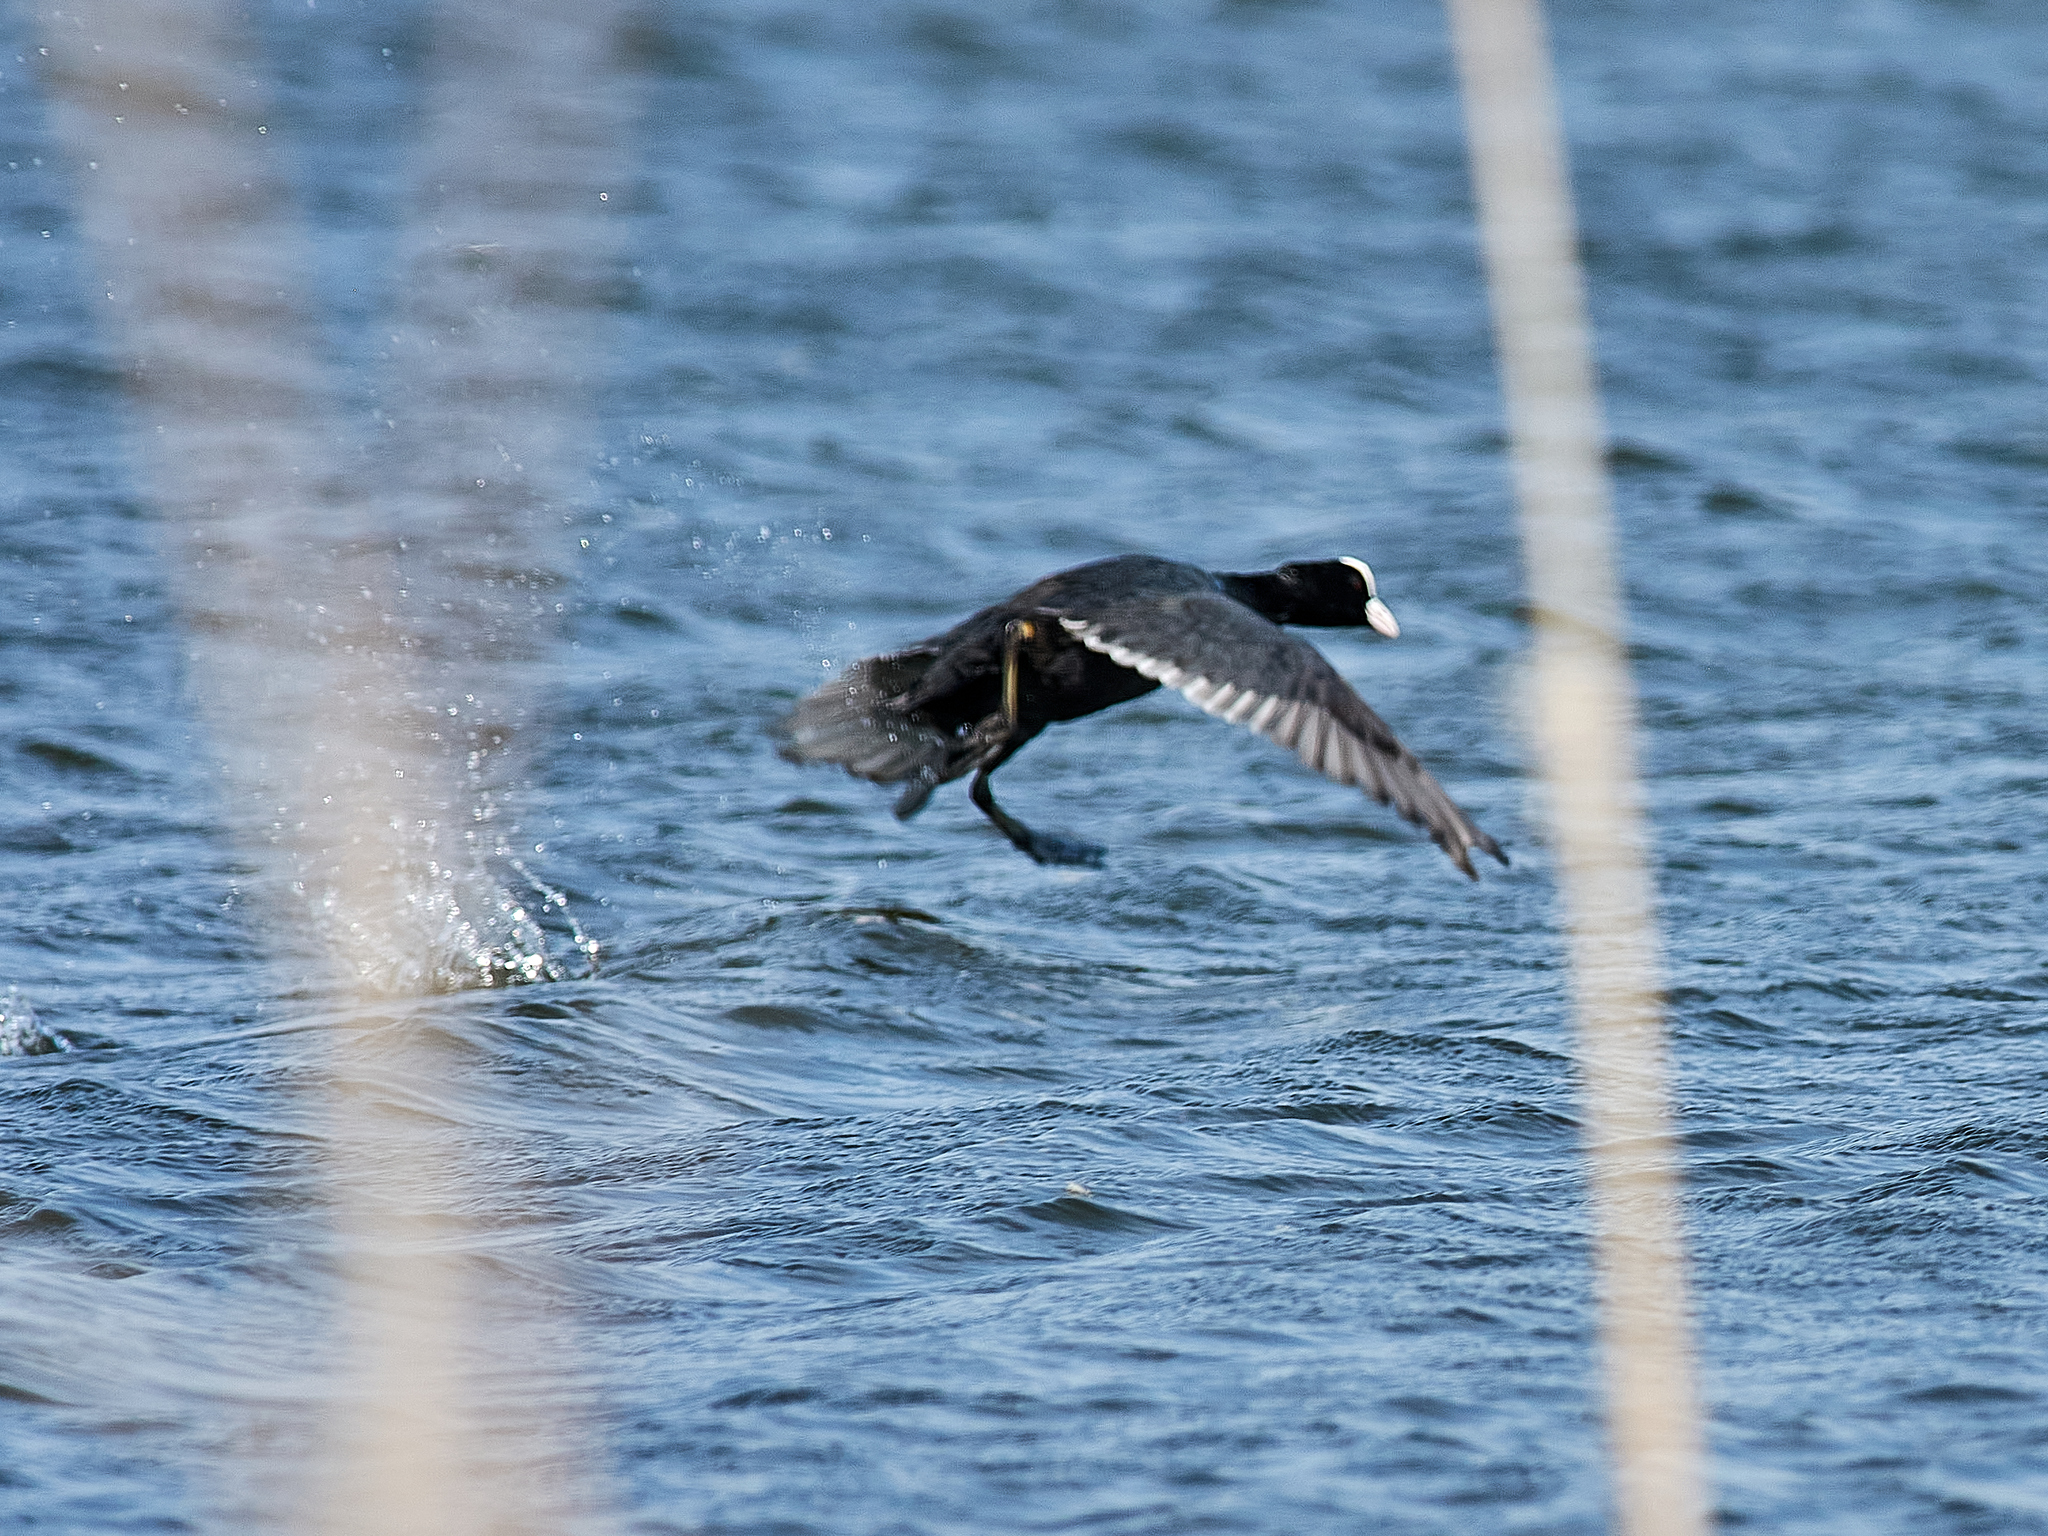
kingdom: Animalia
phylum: Chordata
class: Aves
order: Gruiformes
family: Rallidae
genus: Fulica
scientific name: Fulica atra
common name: Eurasian coot
